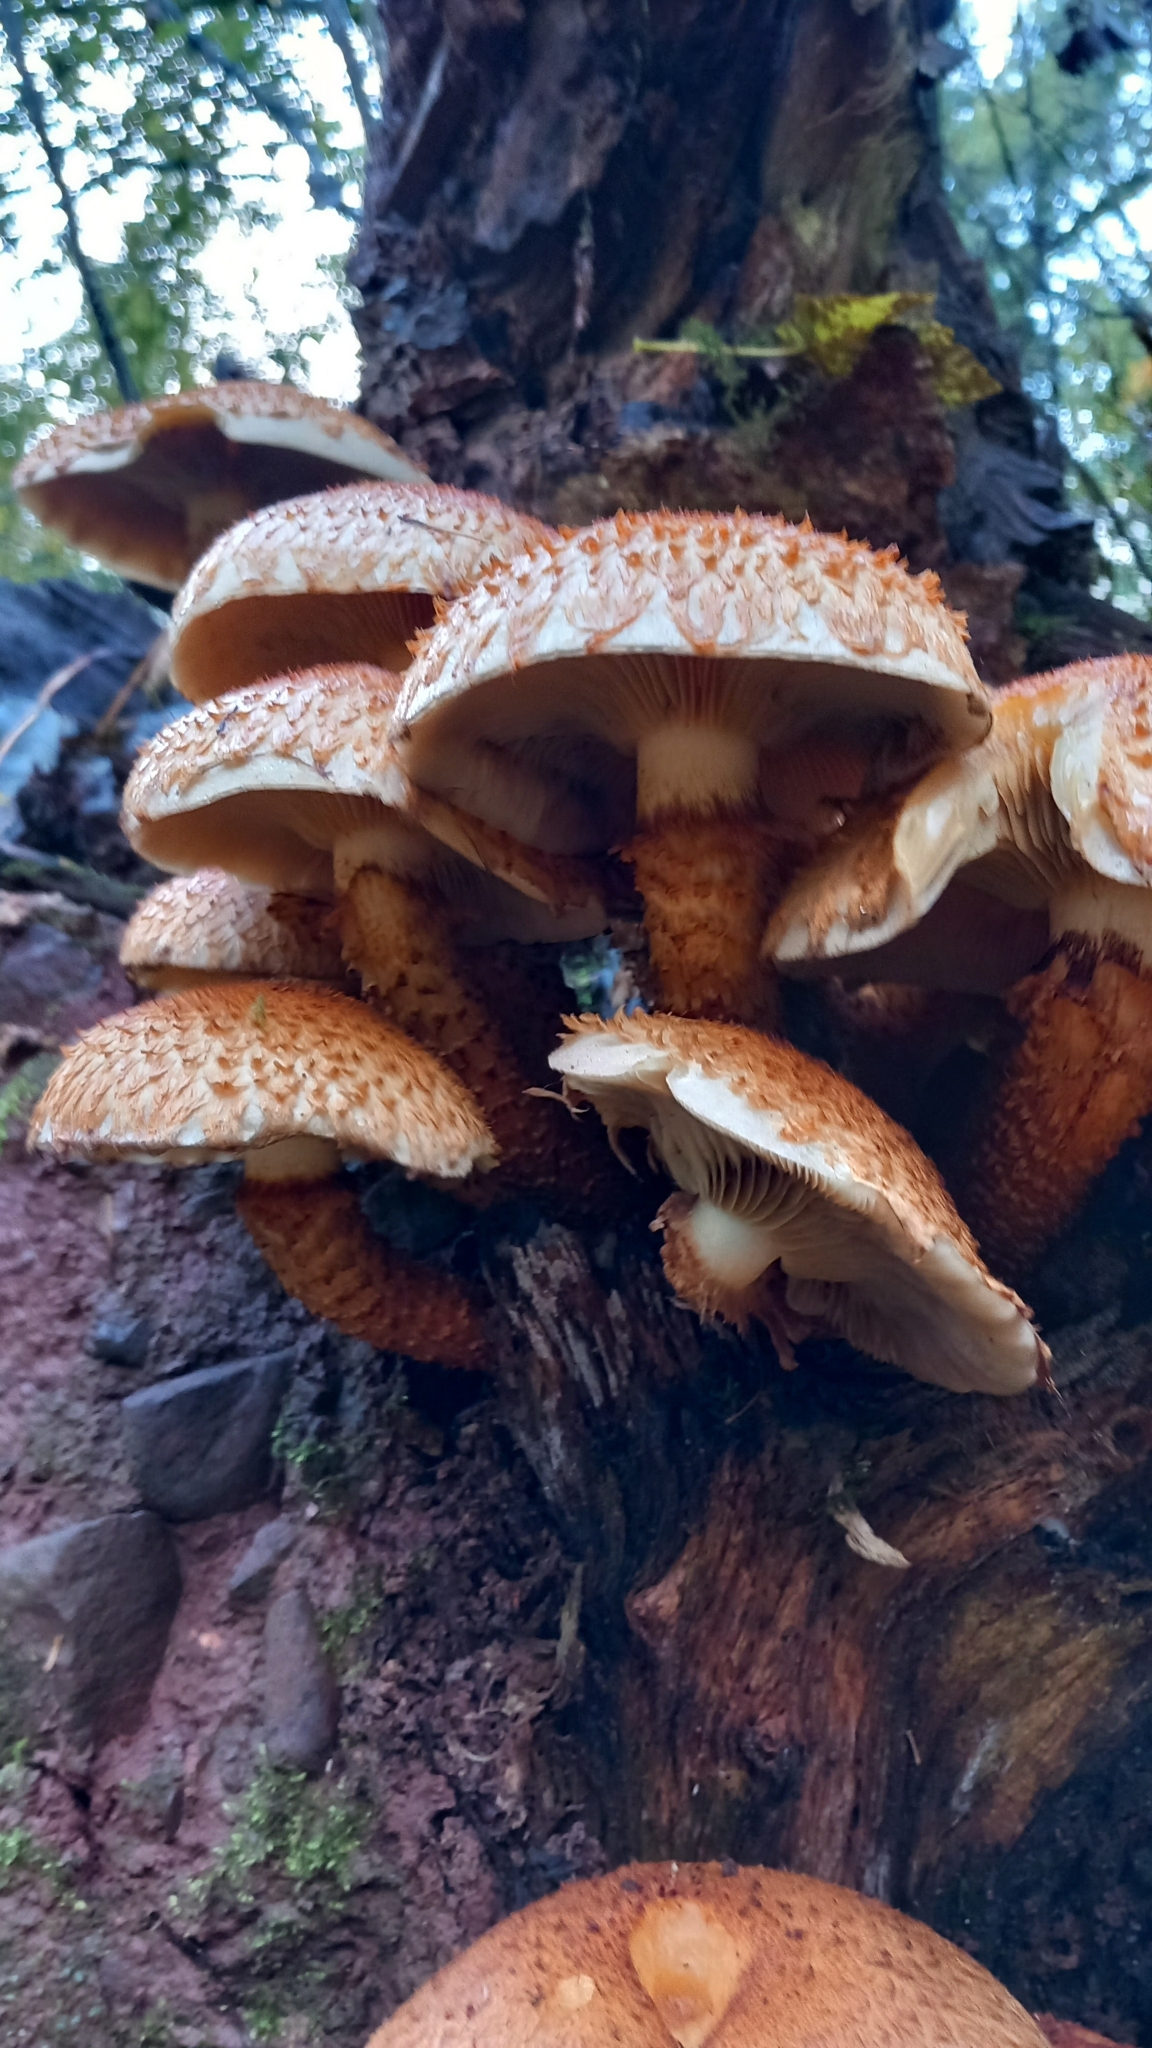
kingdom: Fungi
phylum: Basidiomycota
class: Agaricomycetes
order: Agaricales
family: Strophariaceae
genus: Pholiota
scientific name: Pholiota squarrosa
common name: Shaggy pholiota
